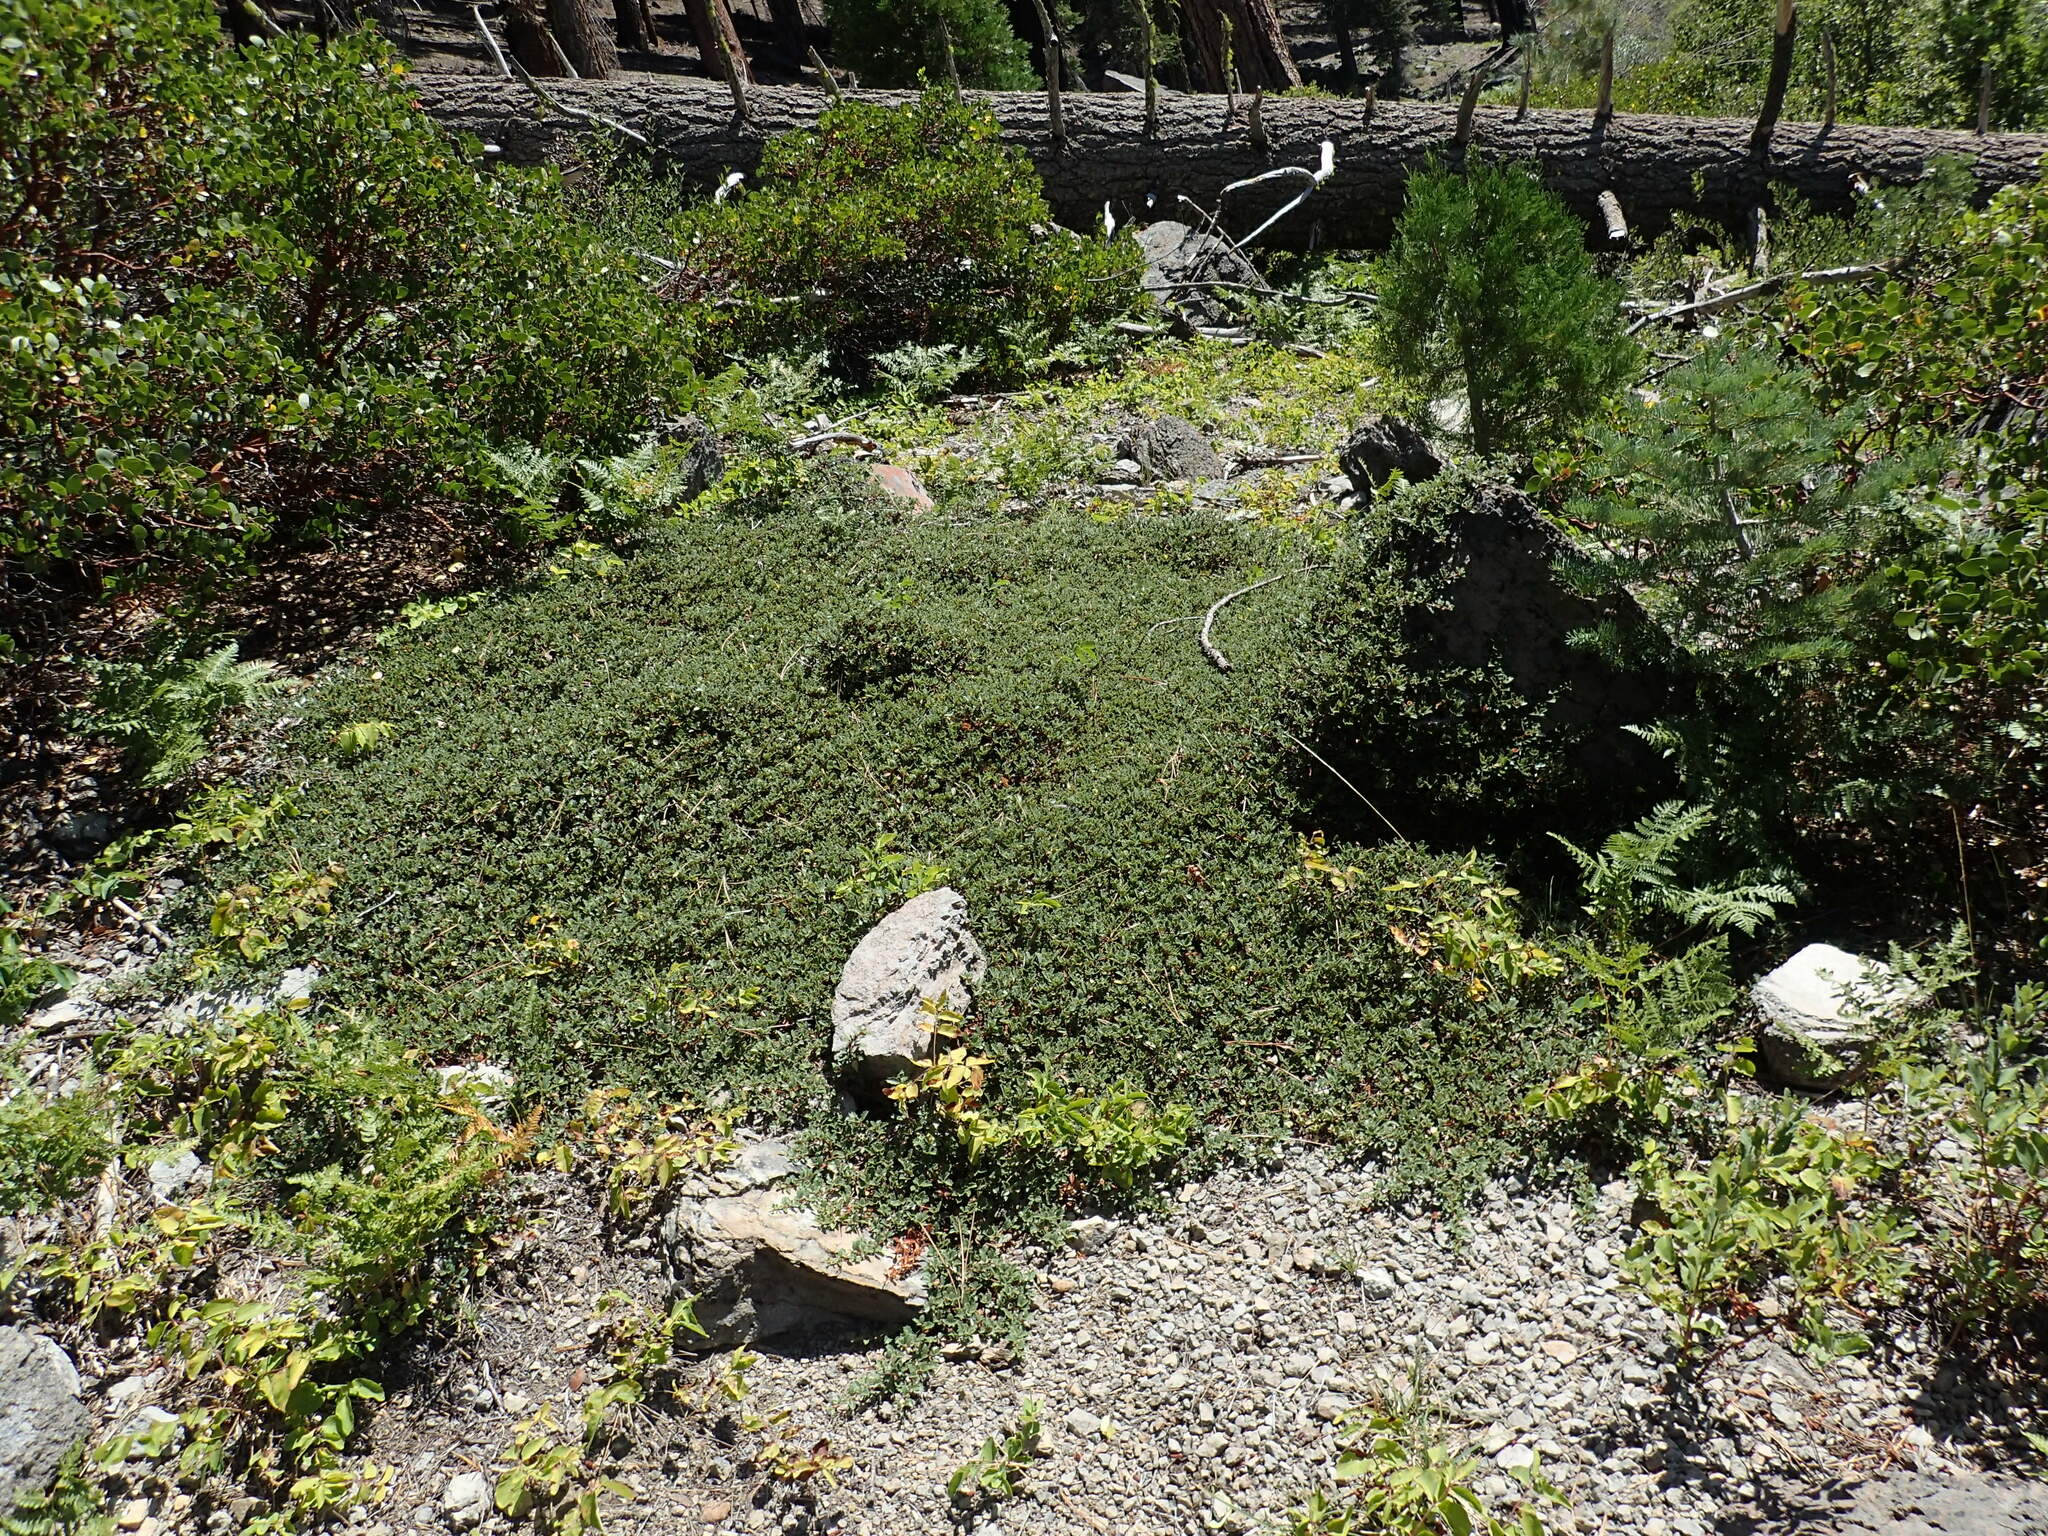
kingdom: Plantae
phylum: Tracheophyta
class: Magnoliopsida
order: Rosales
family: Rhamnaceae
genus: Ceanothus
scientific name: Ceanothus prostratus
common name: Mahala-mat
